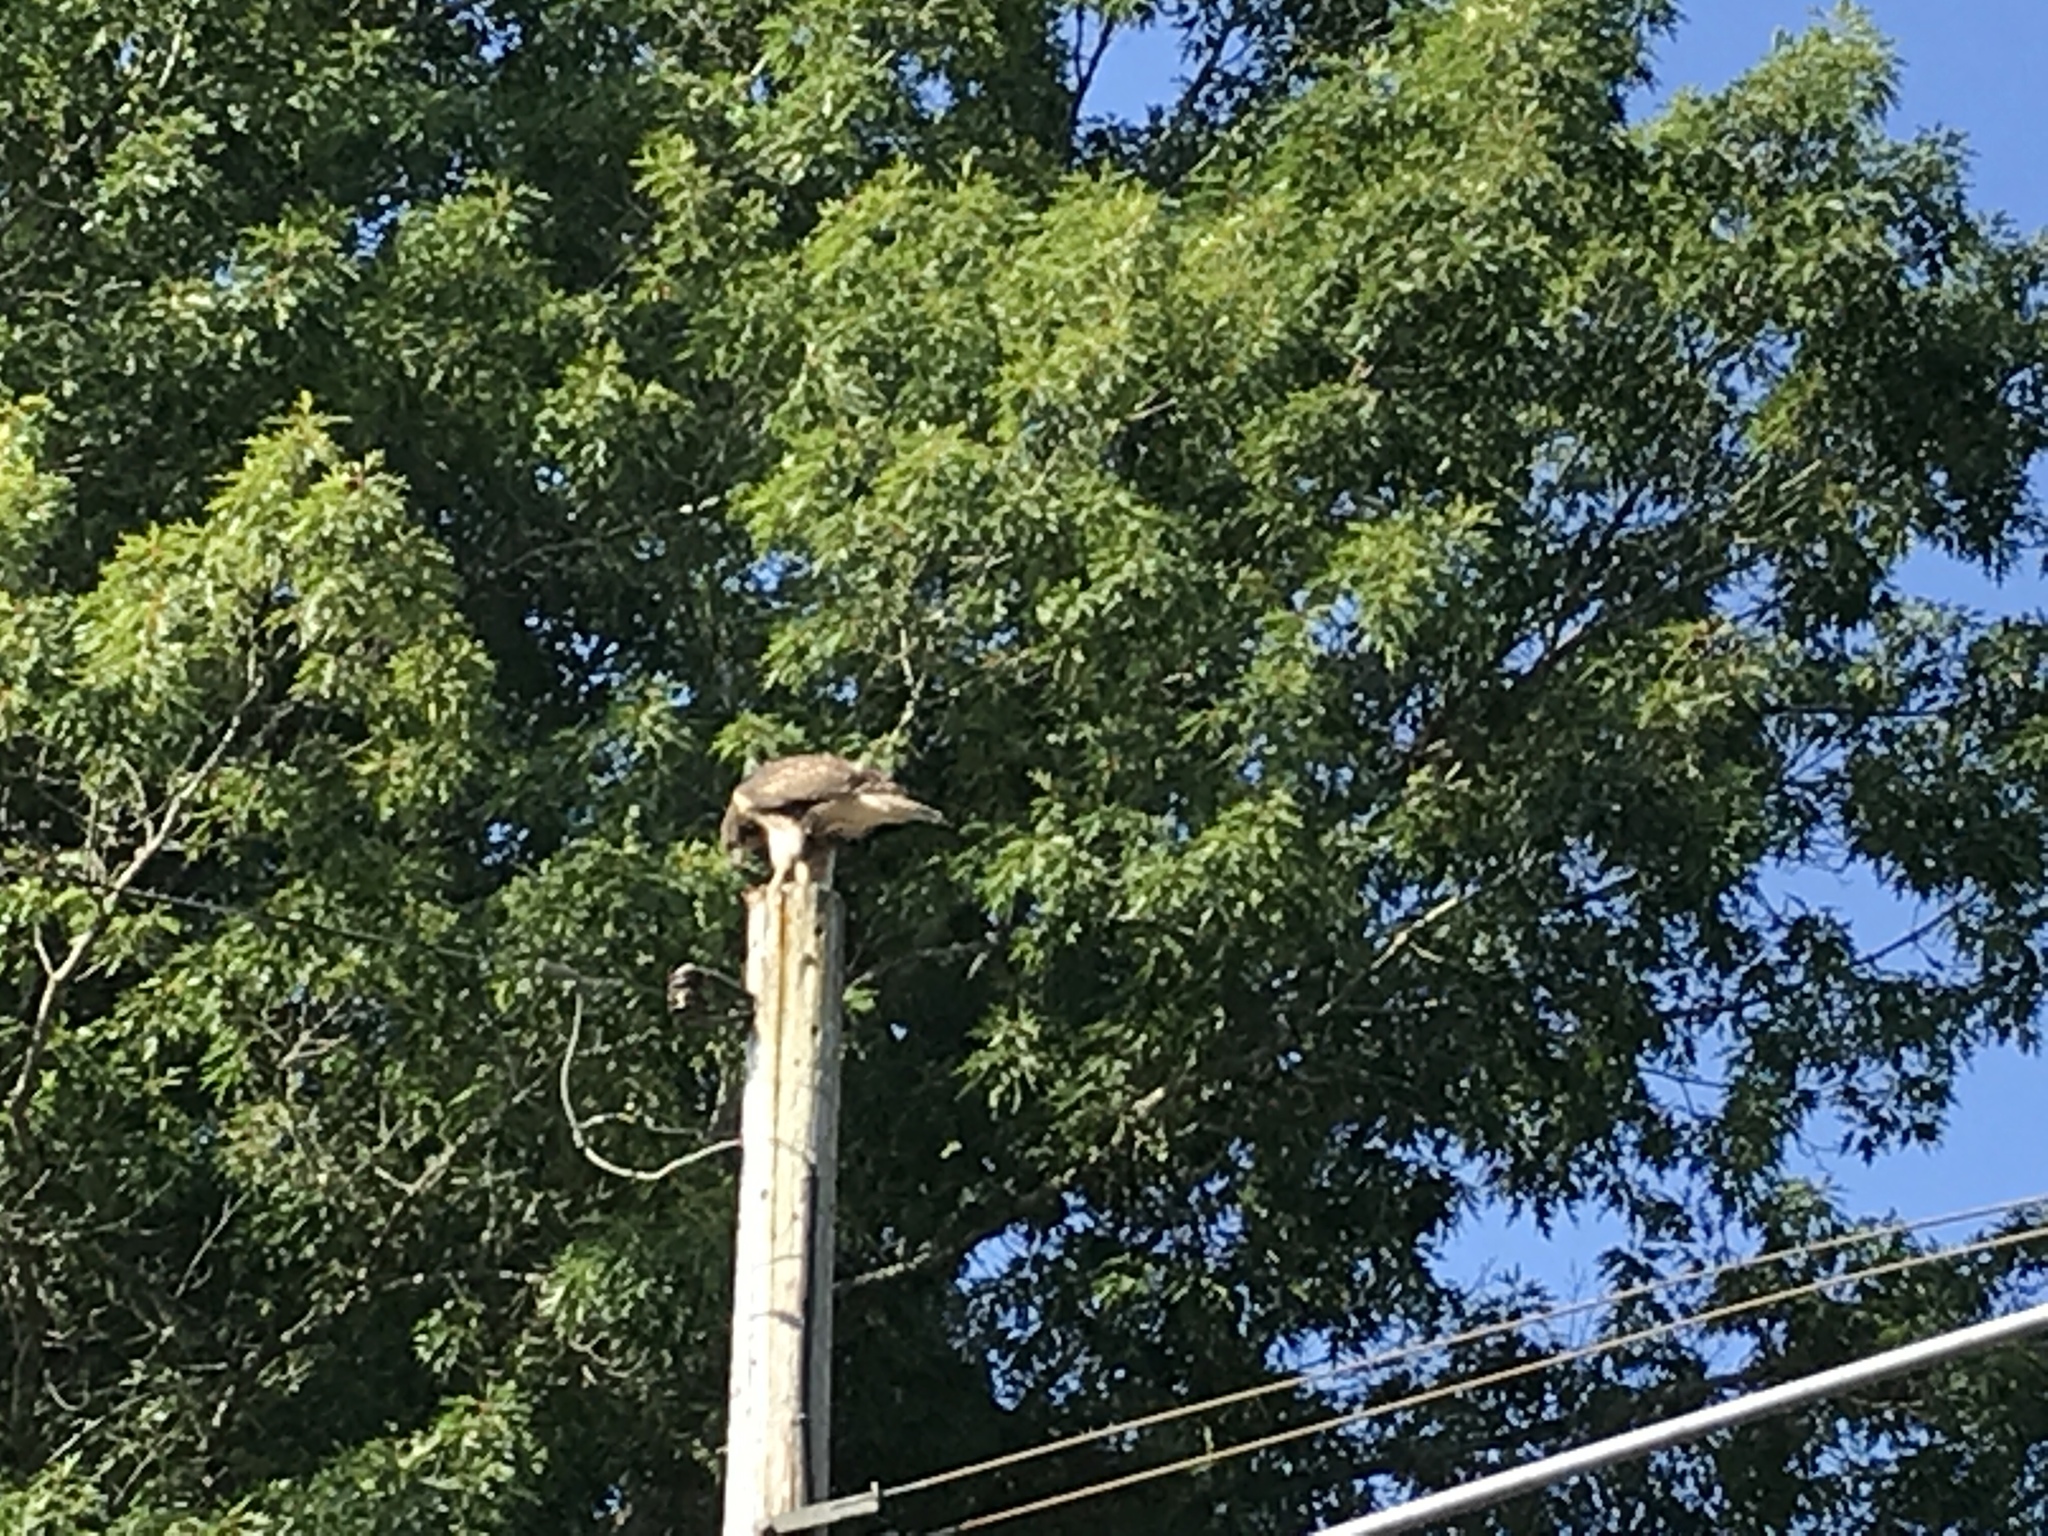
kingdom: Animalia
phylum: Chordata
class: Aves
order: Accipitriformes
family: Accipitridae
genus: Buteo
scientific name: Buteo jamaicensis
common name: Red-tailed hawk
